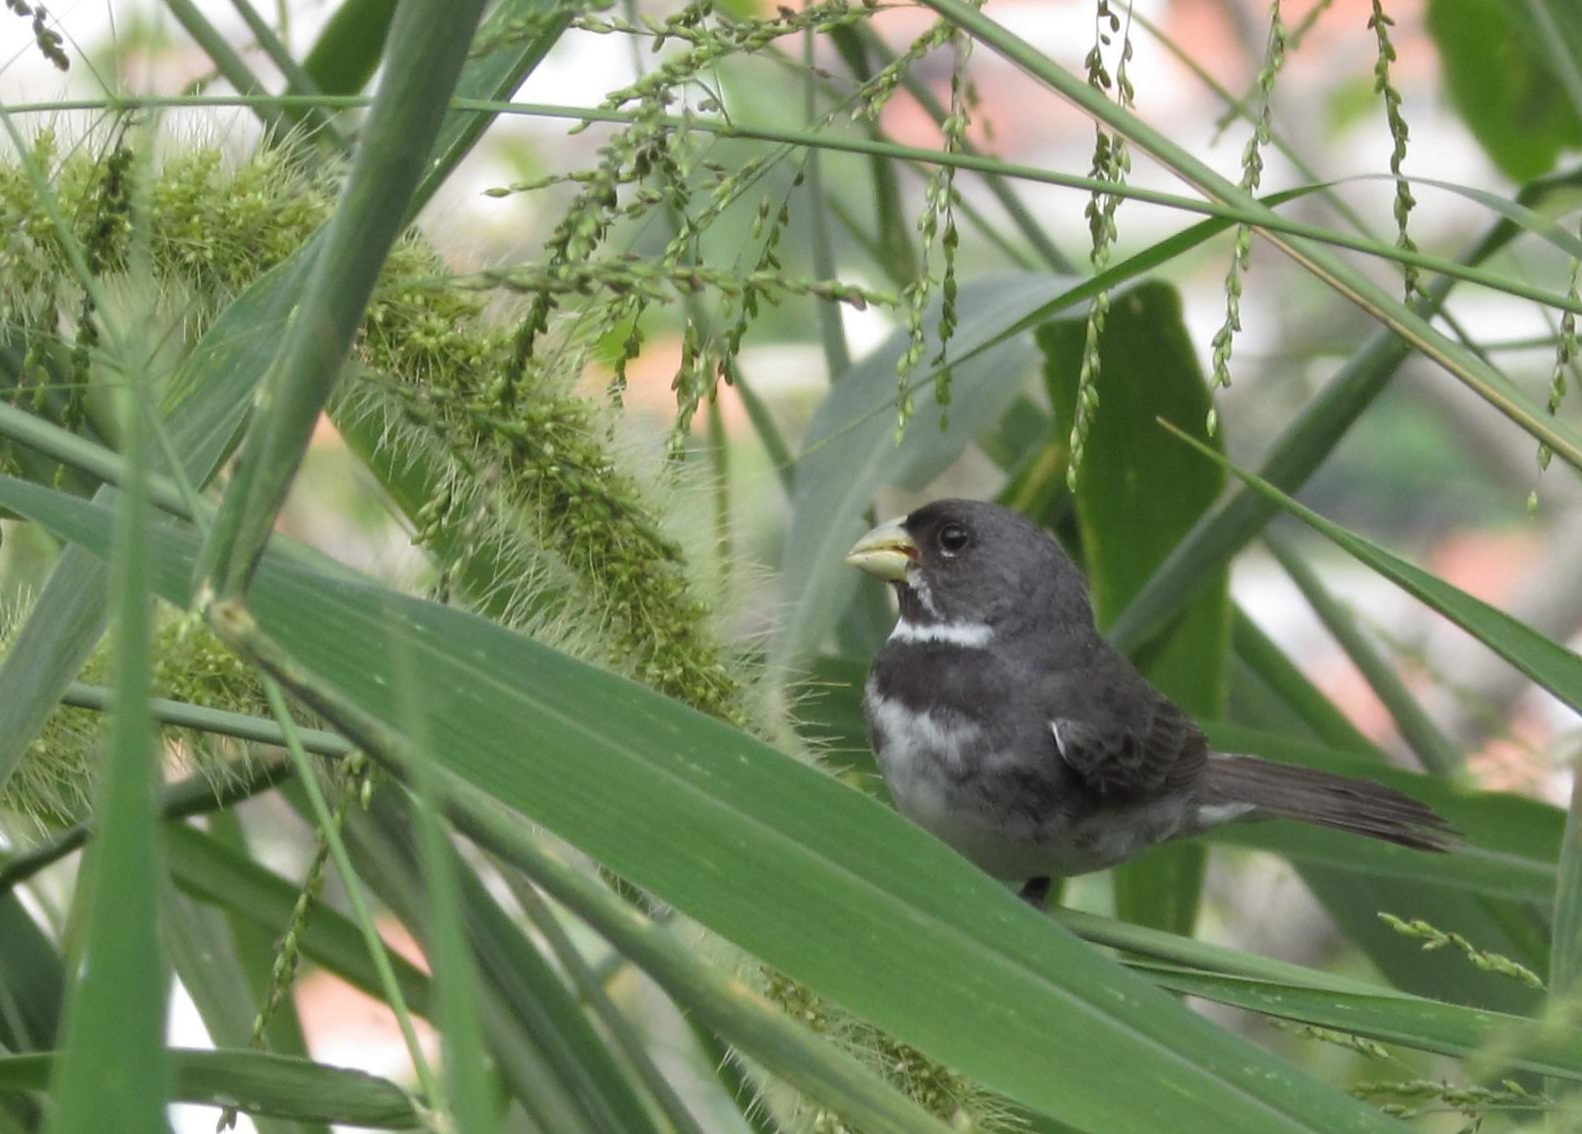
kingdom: Animalia
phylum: Chordata
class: Aves
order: Passeriformes
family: Thraupidae
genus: Sporophila
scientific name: Sporophila caerulescens
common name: Double-collared seedeater
